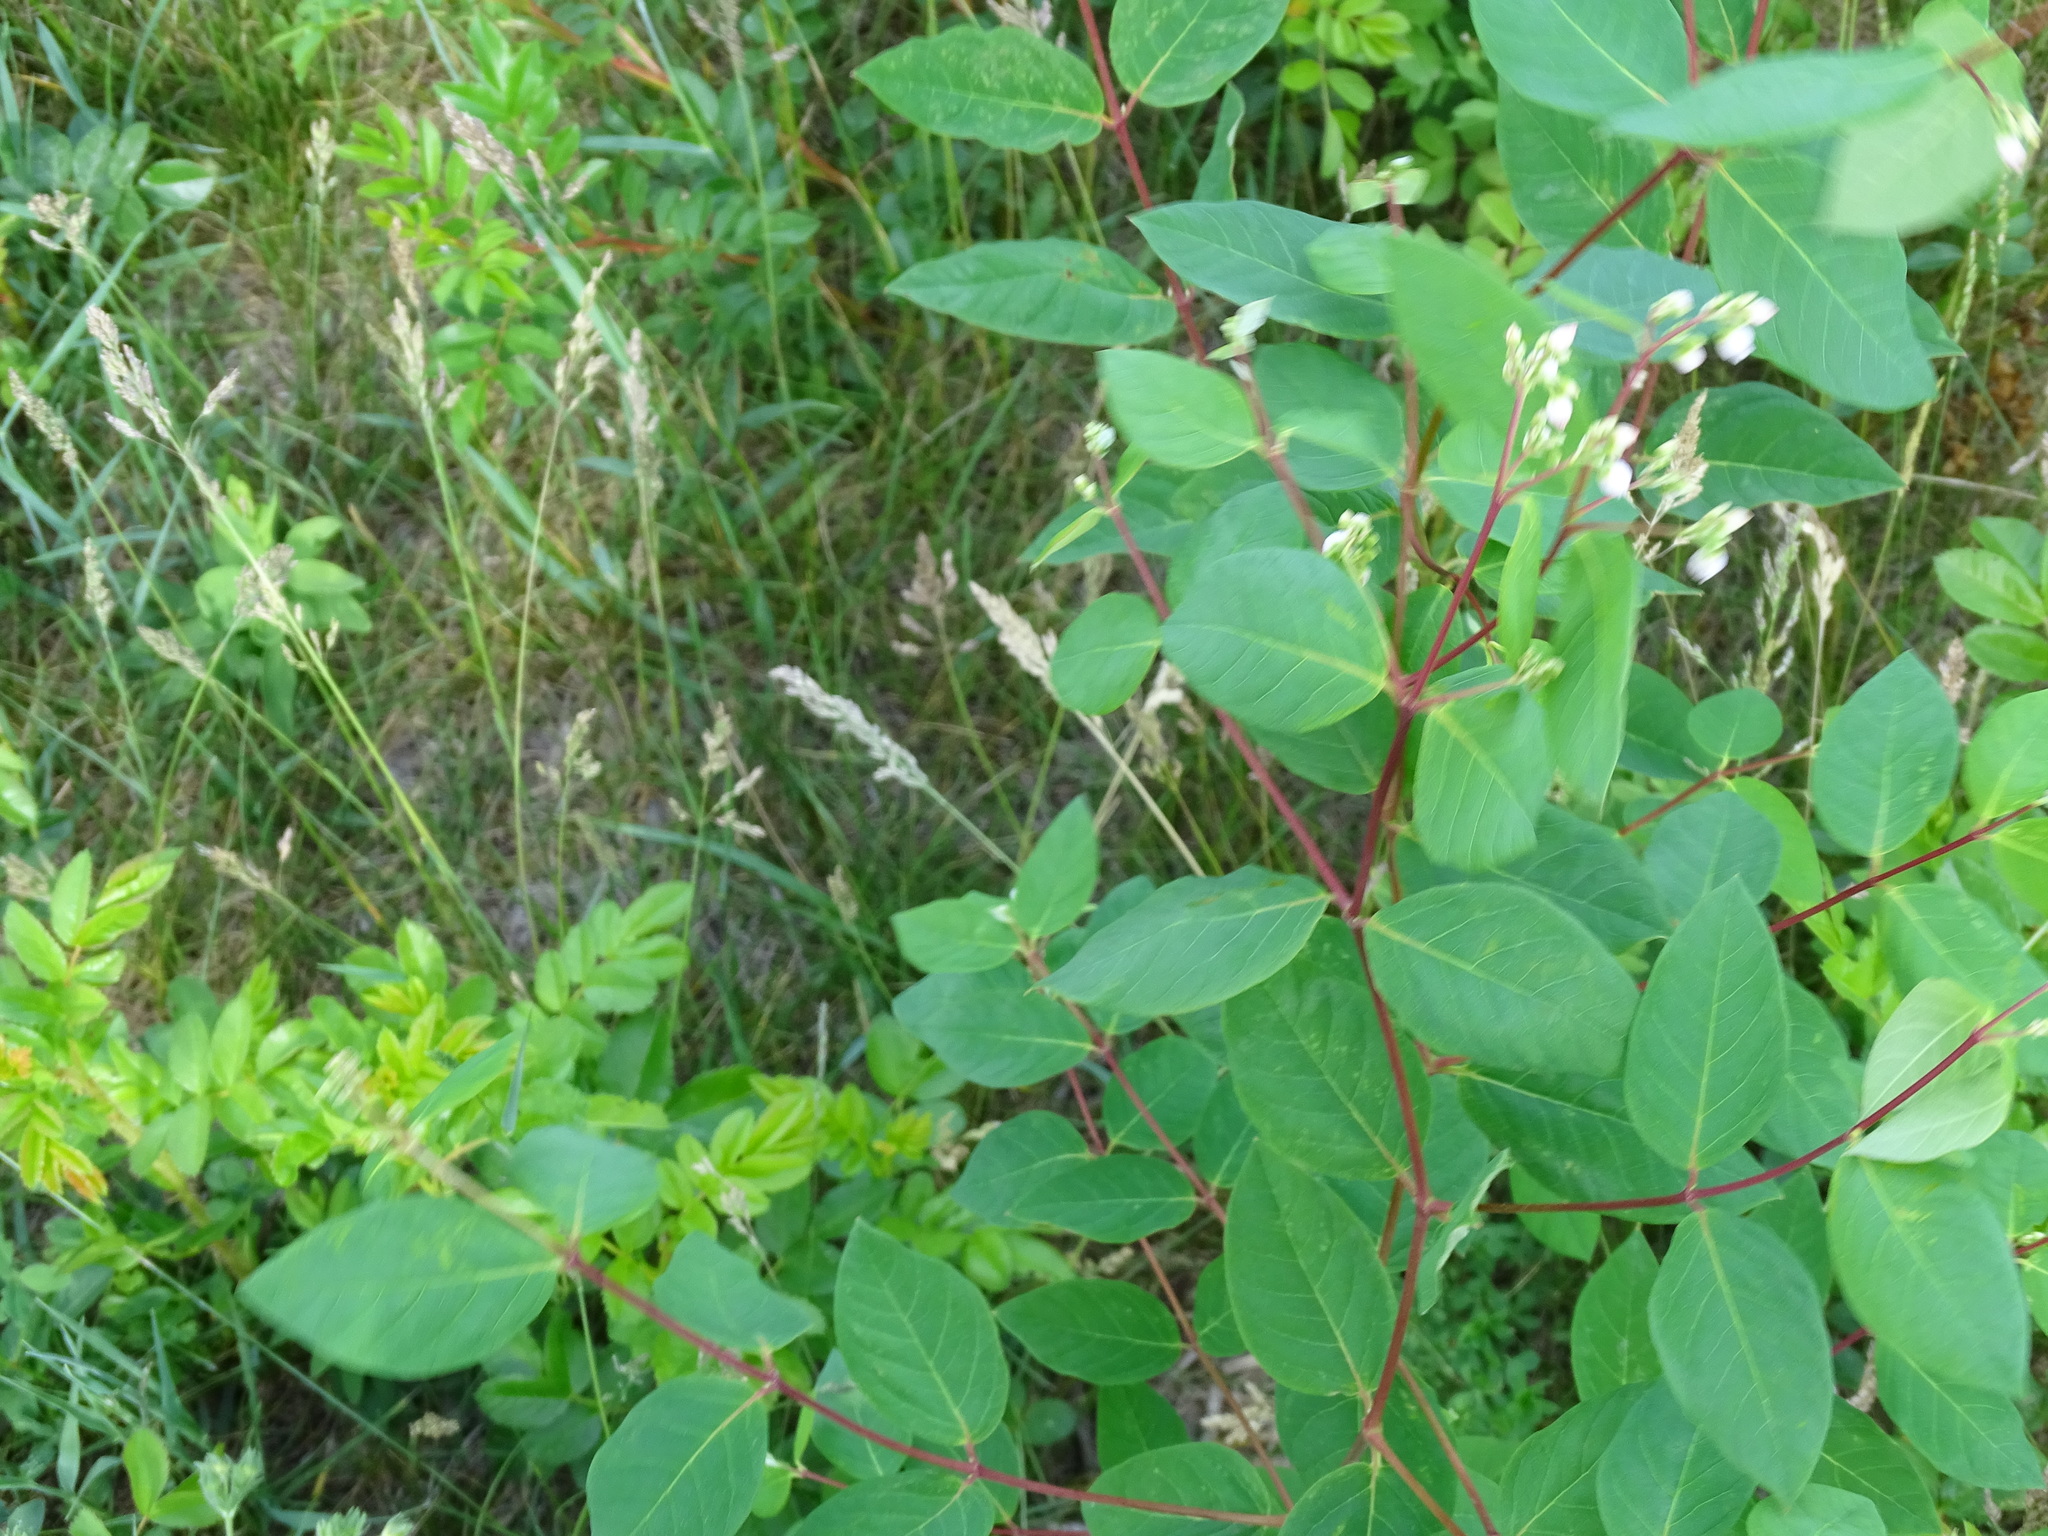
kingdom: Plantae
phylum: Tracheophyta
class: Magnoliopsida
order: Gentianales
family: Apocynaceae
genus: Apocynum
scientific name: Apocynum androsaemifolium
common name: Spreading dogbane
